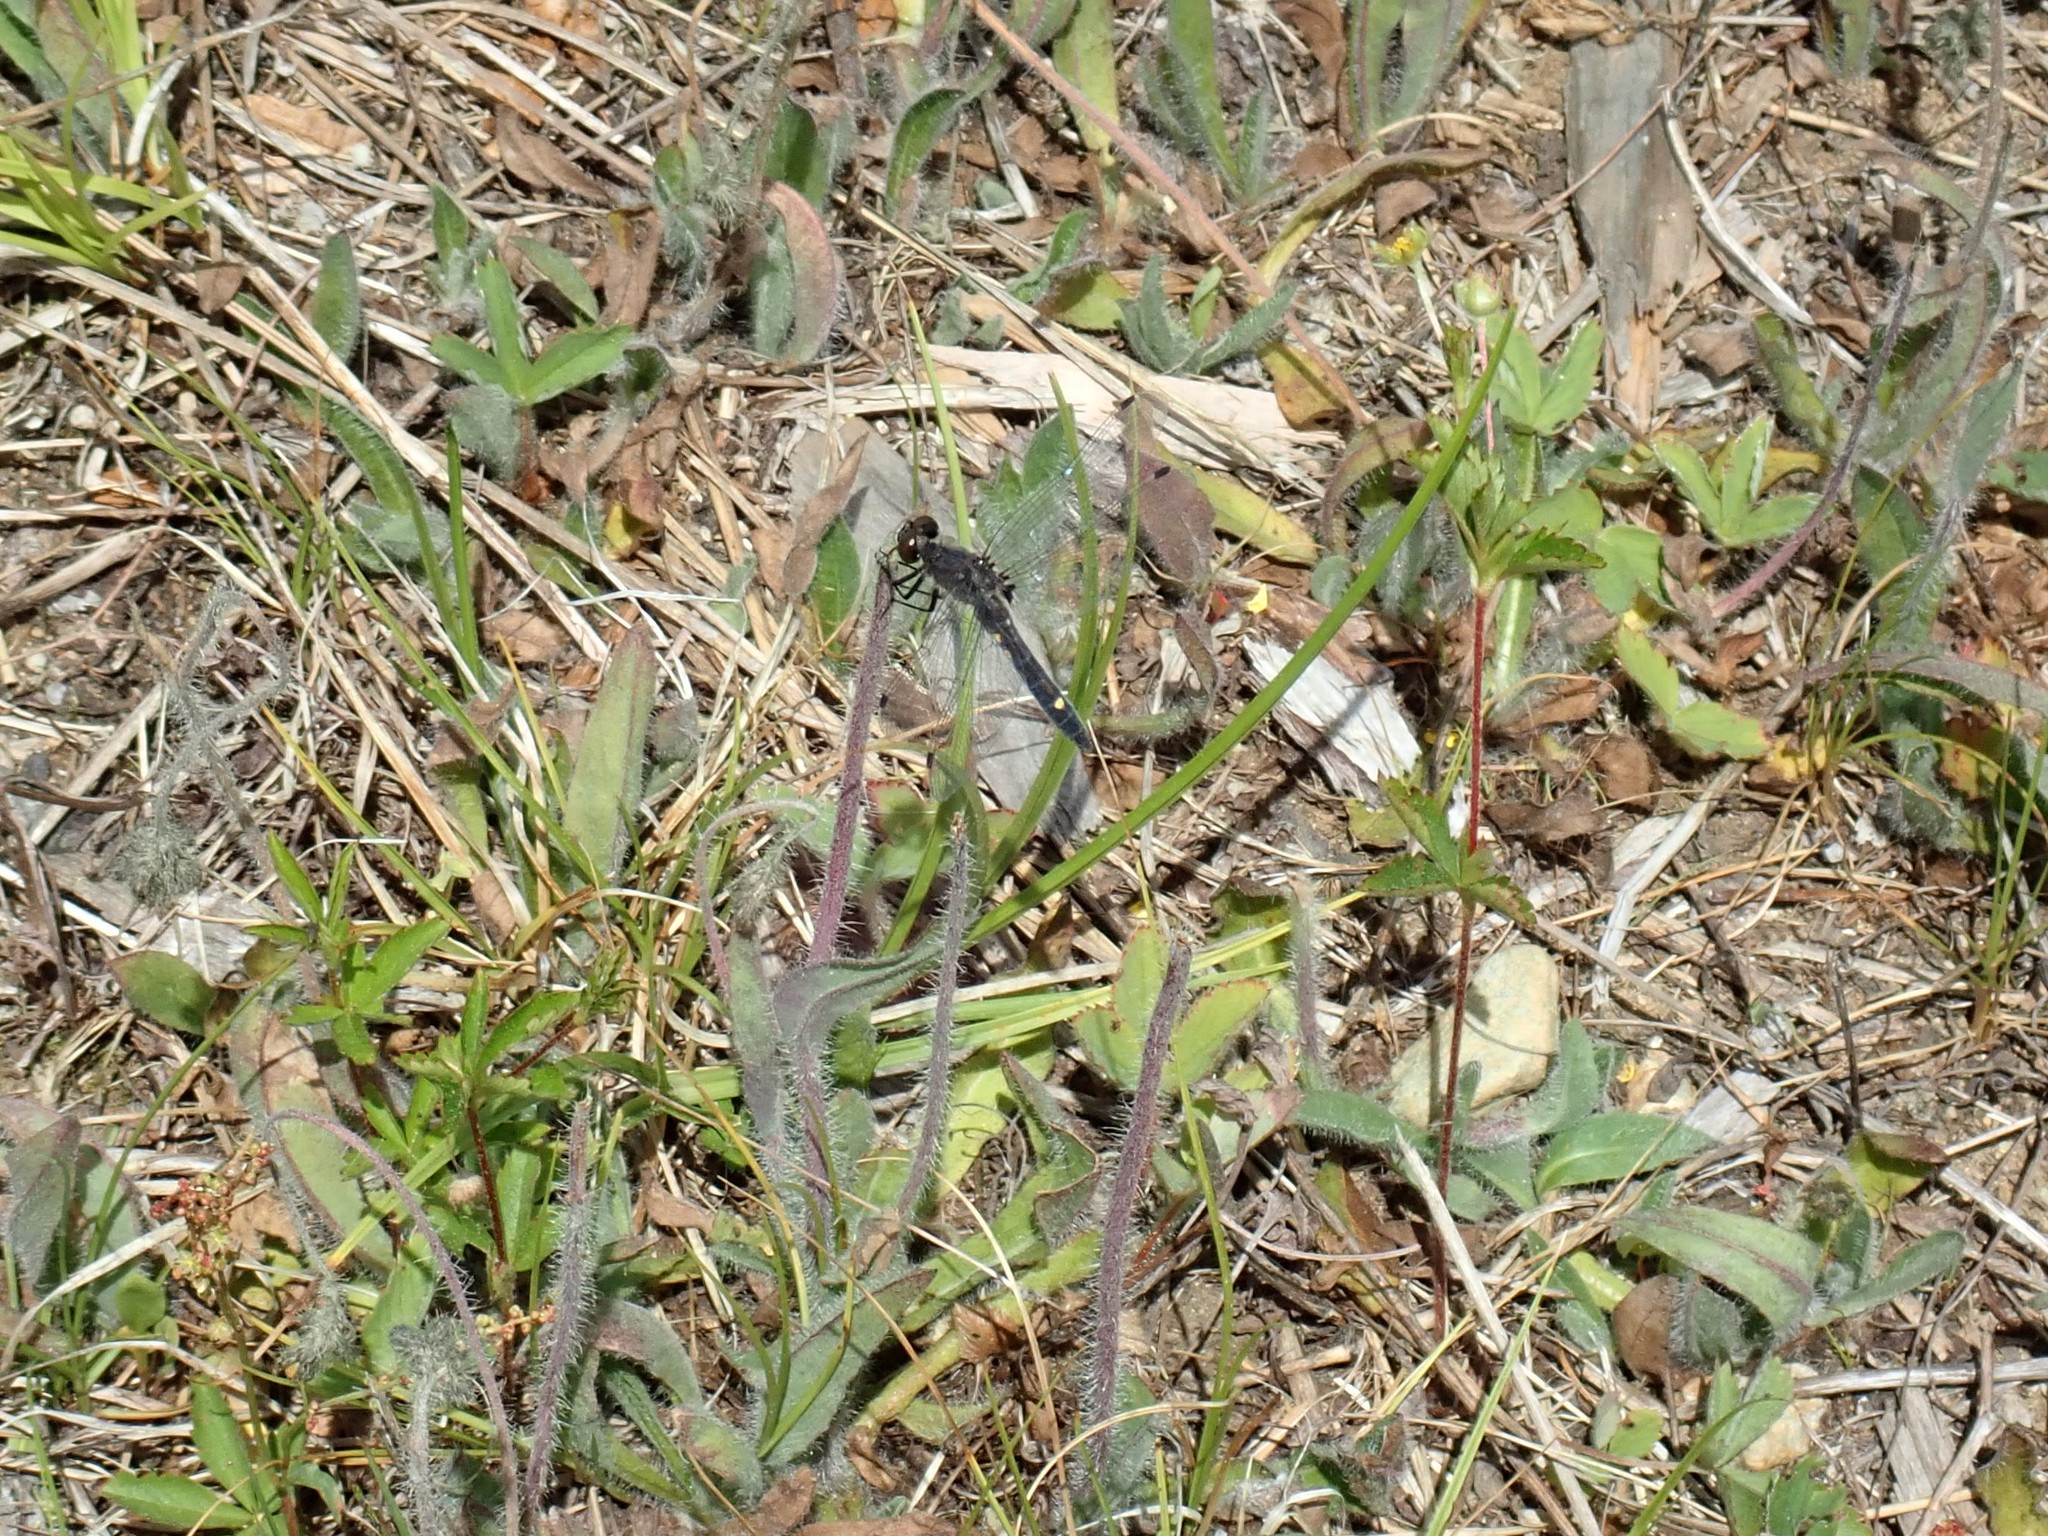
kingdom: Animalia
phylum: Arthropoda
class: Insecta
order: Odonata
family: Libellulidae
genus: Leucorrhinia
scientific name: Leucorrhinia intacta
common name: Dot-tailed whiteface
